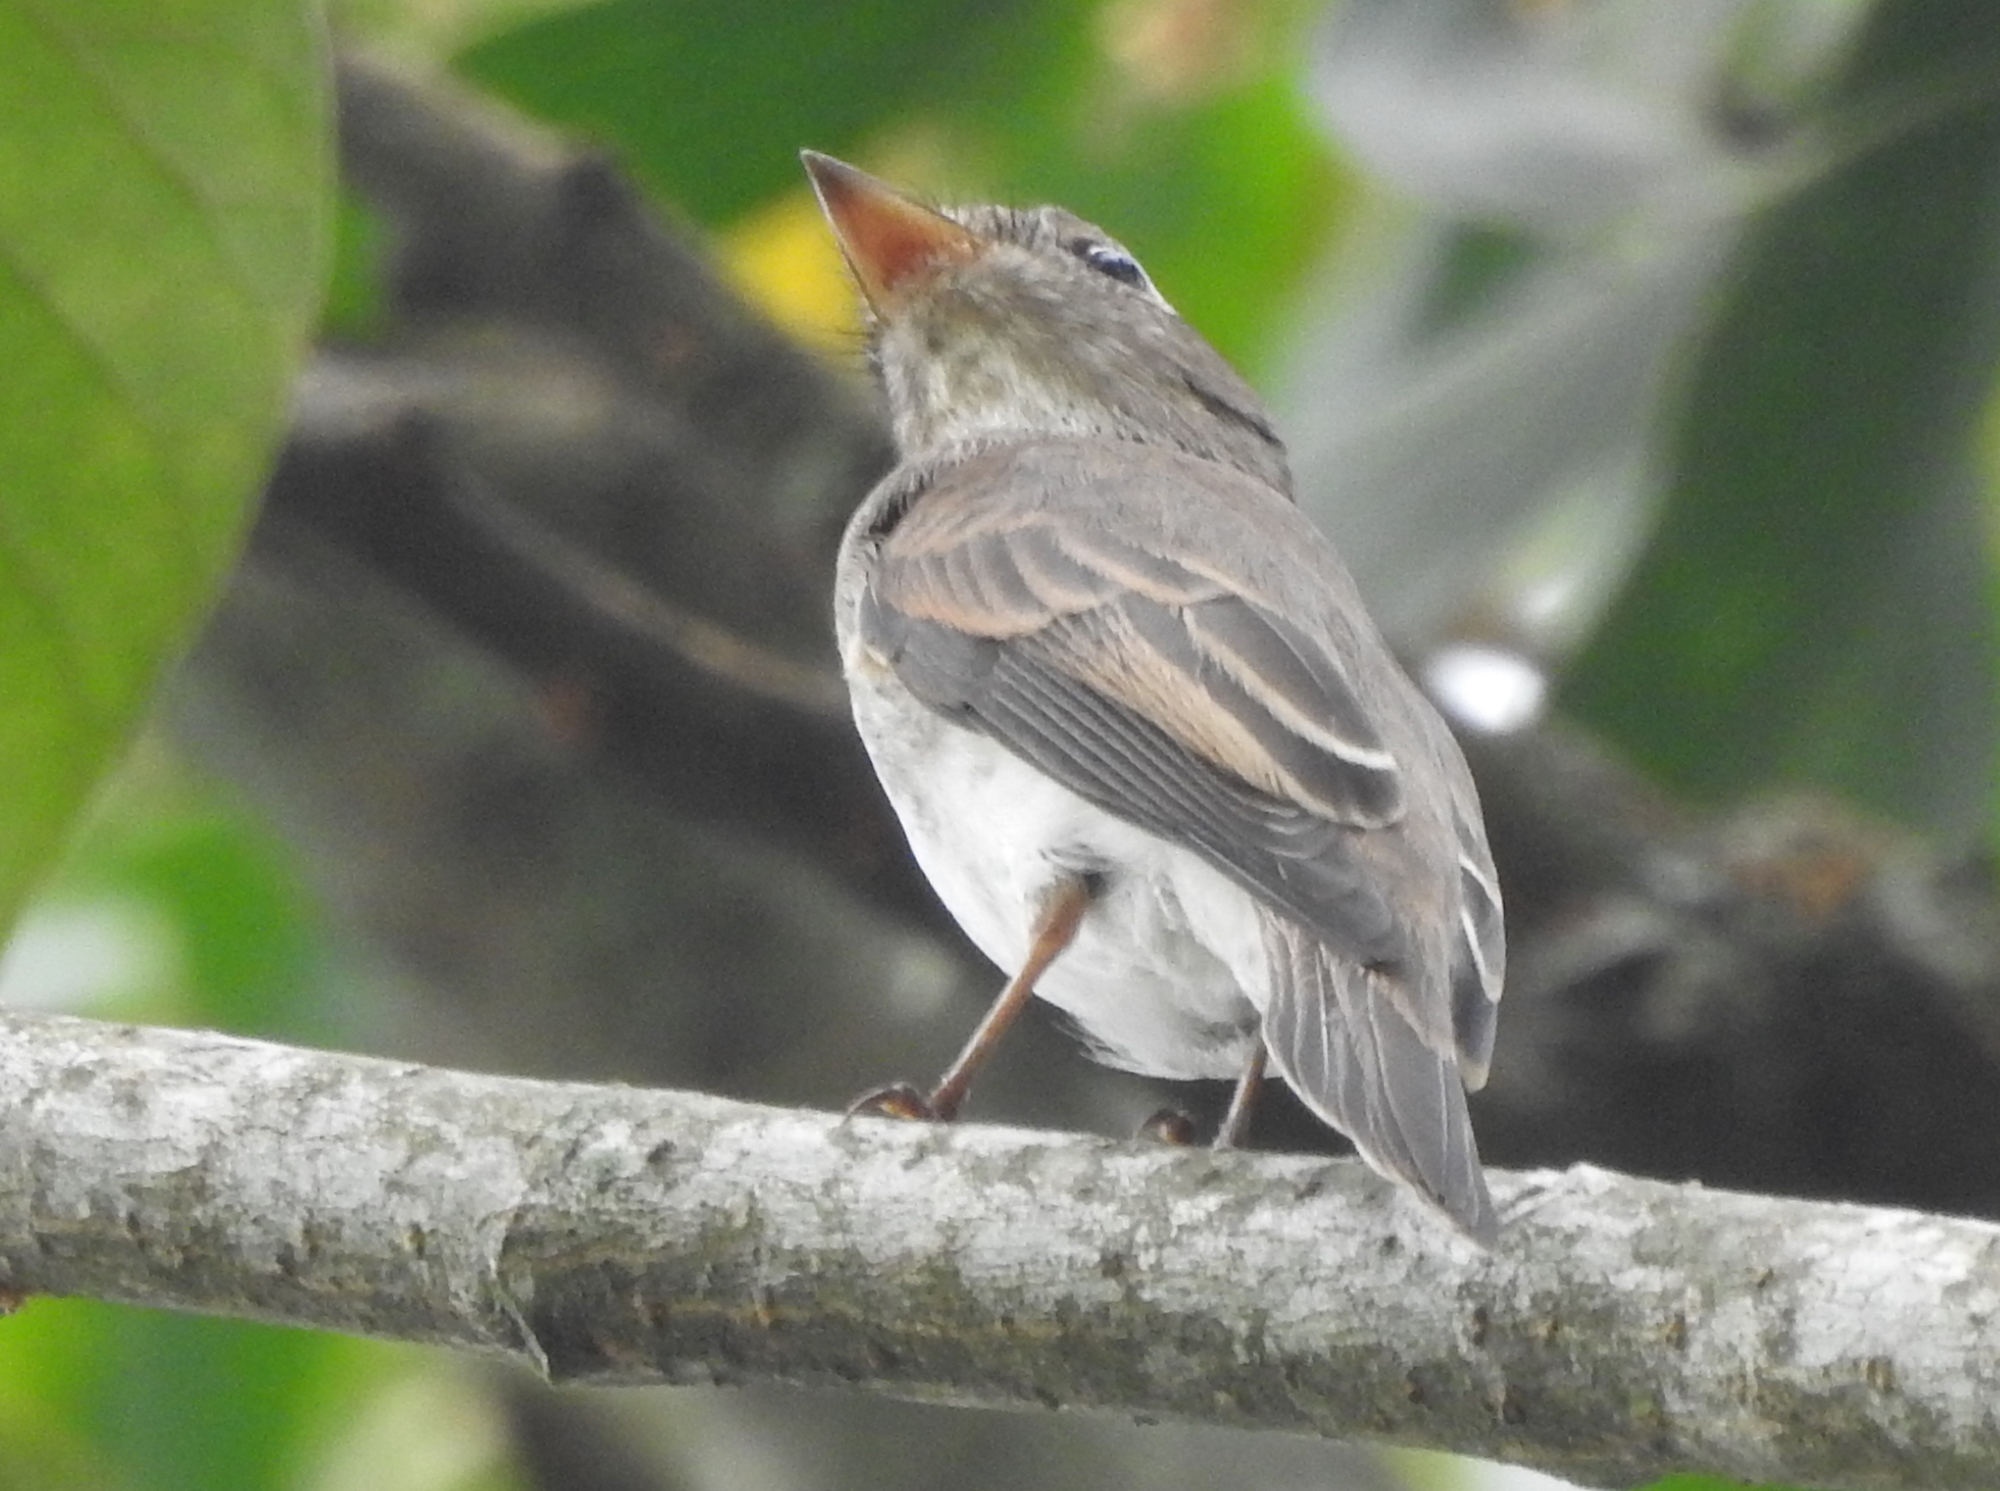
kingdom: Animalia
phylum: Chordata
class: Aves
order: Passeriformes
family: Muscicapidae
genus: Muscicapa
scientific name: Muscicapa latirostris
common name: Asian brown flycatcher
